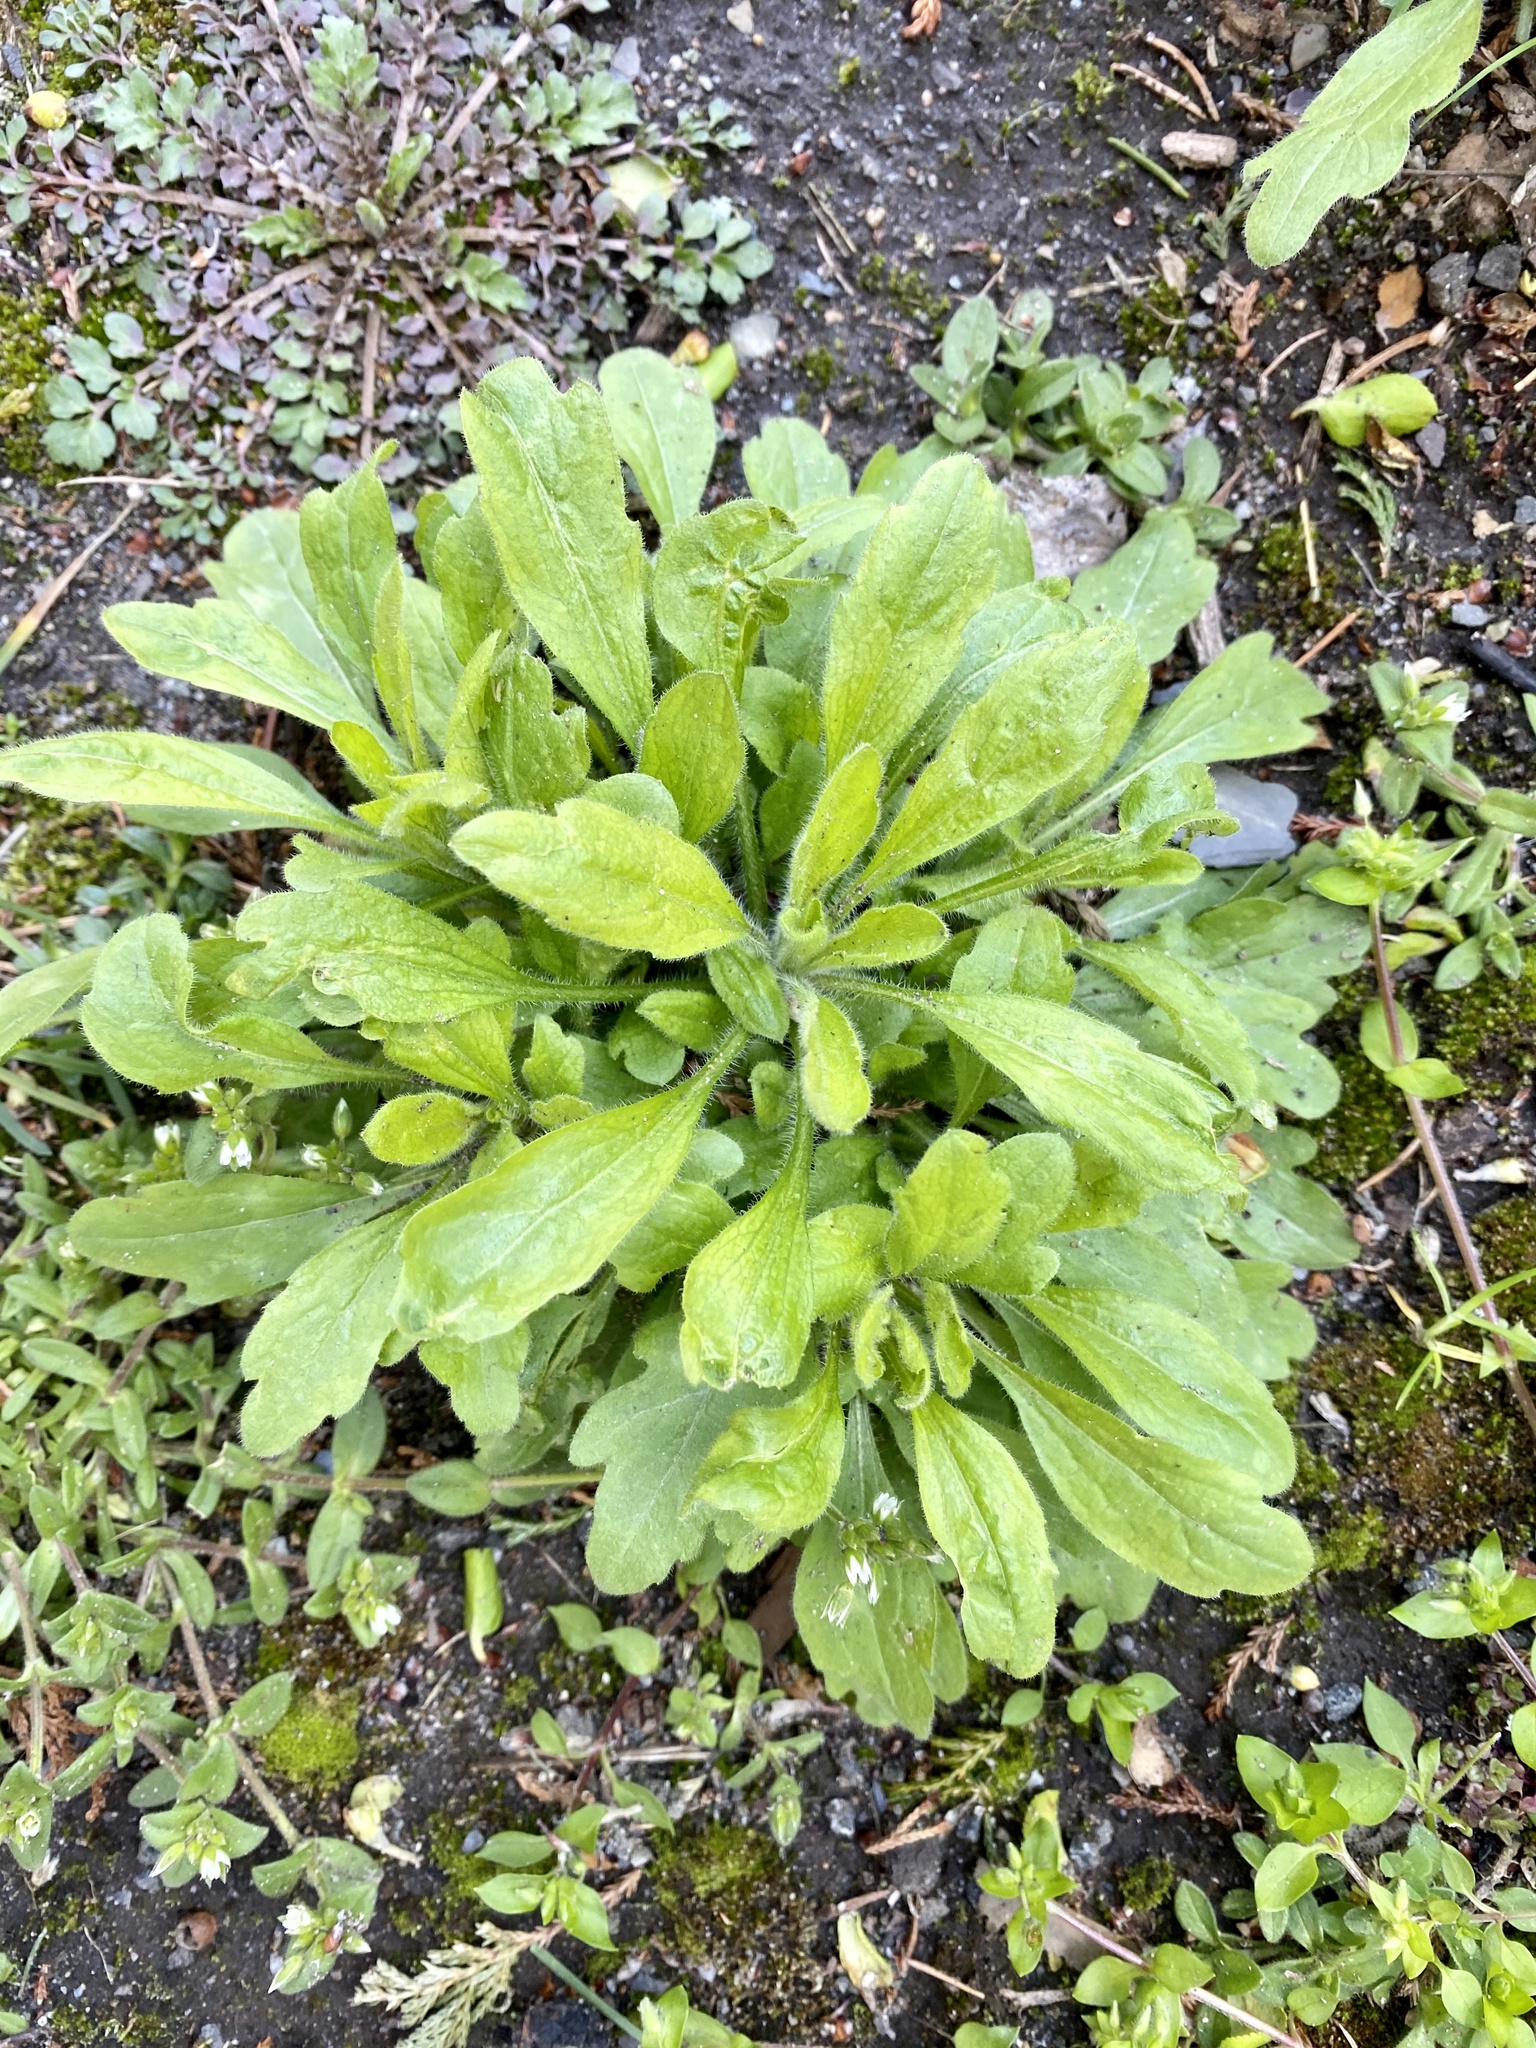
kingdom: Plantae
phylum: Tracheophyta
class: Magnoliopsida
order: Asterales
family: Asteraceae
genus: Erigeron
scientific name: Erigeron canadensis
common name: Canadian fleabane
